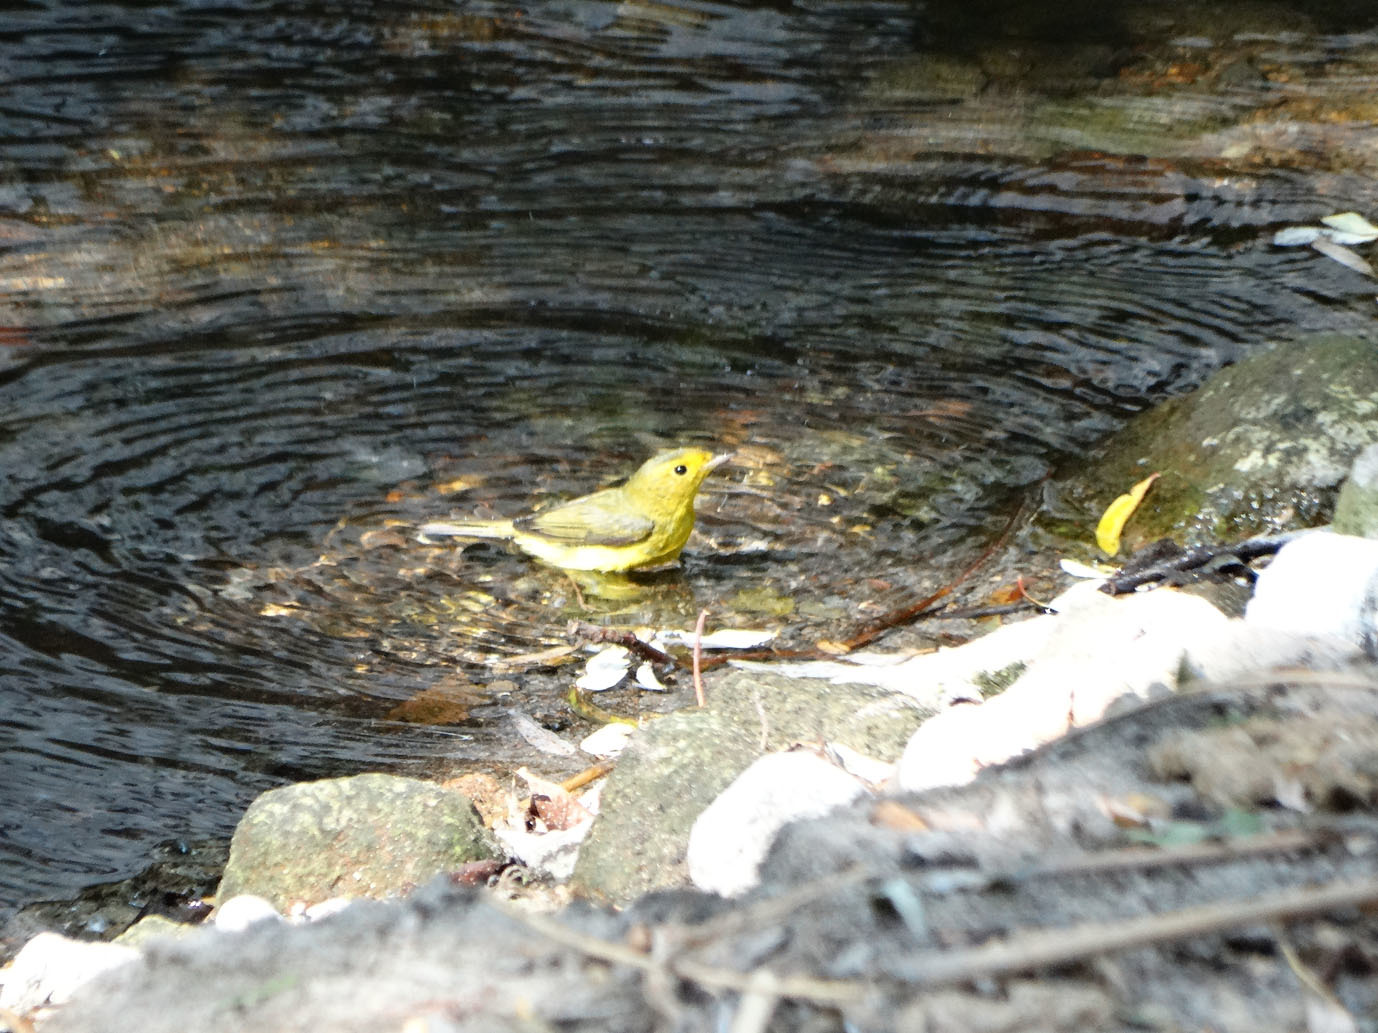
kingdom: Animalia
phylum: Chordata
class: Aves
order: Passeriformes
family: Parulidae
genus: Cardellina
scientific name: Cardellina pusilla
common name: Wilson's warbler
